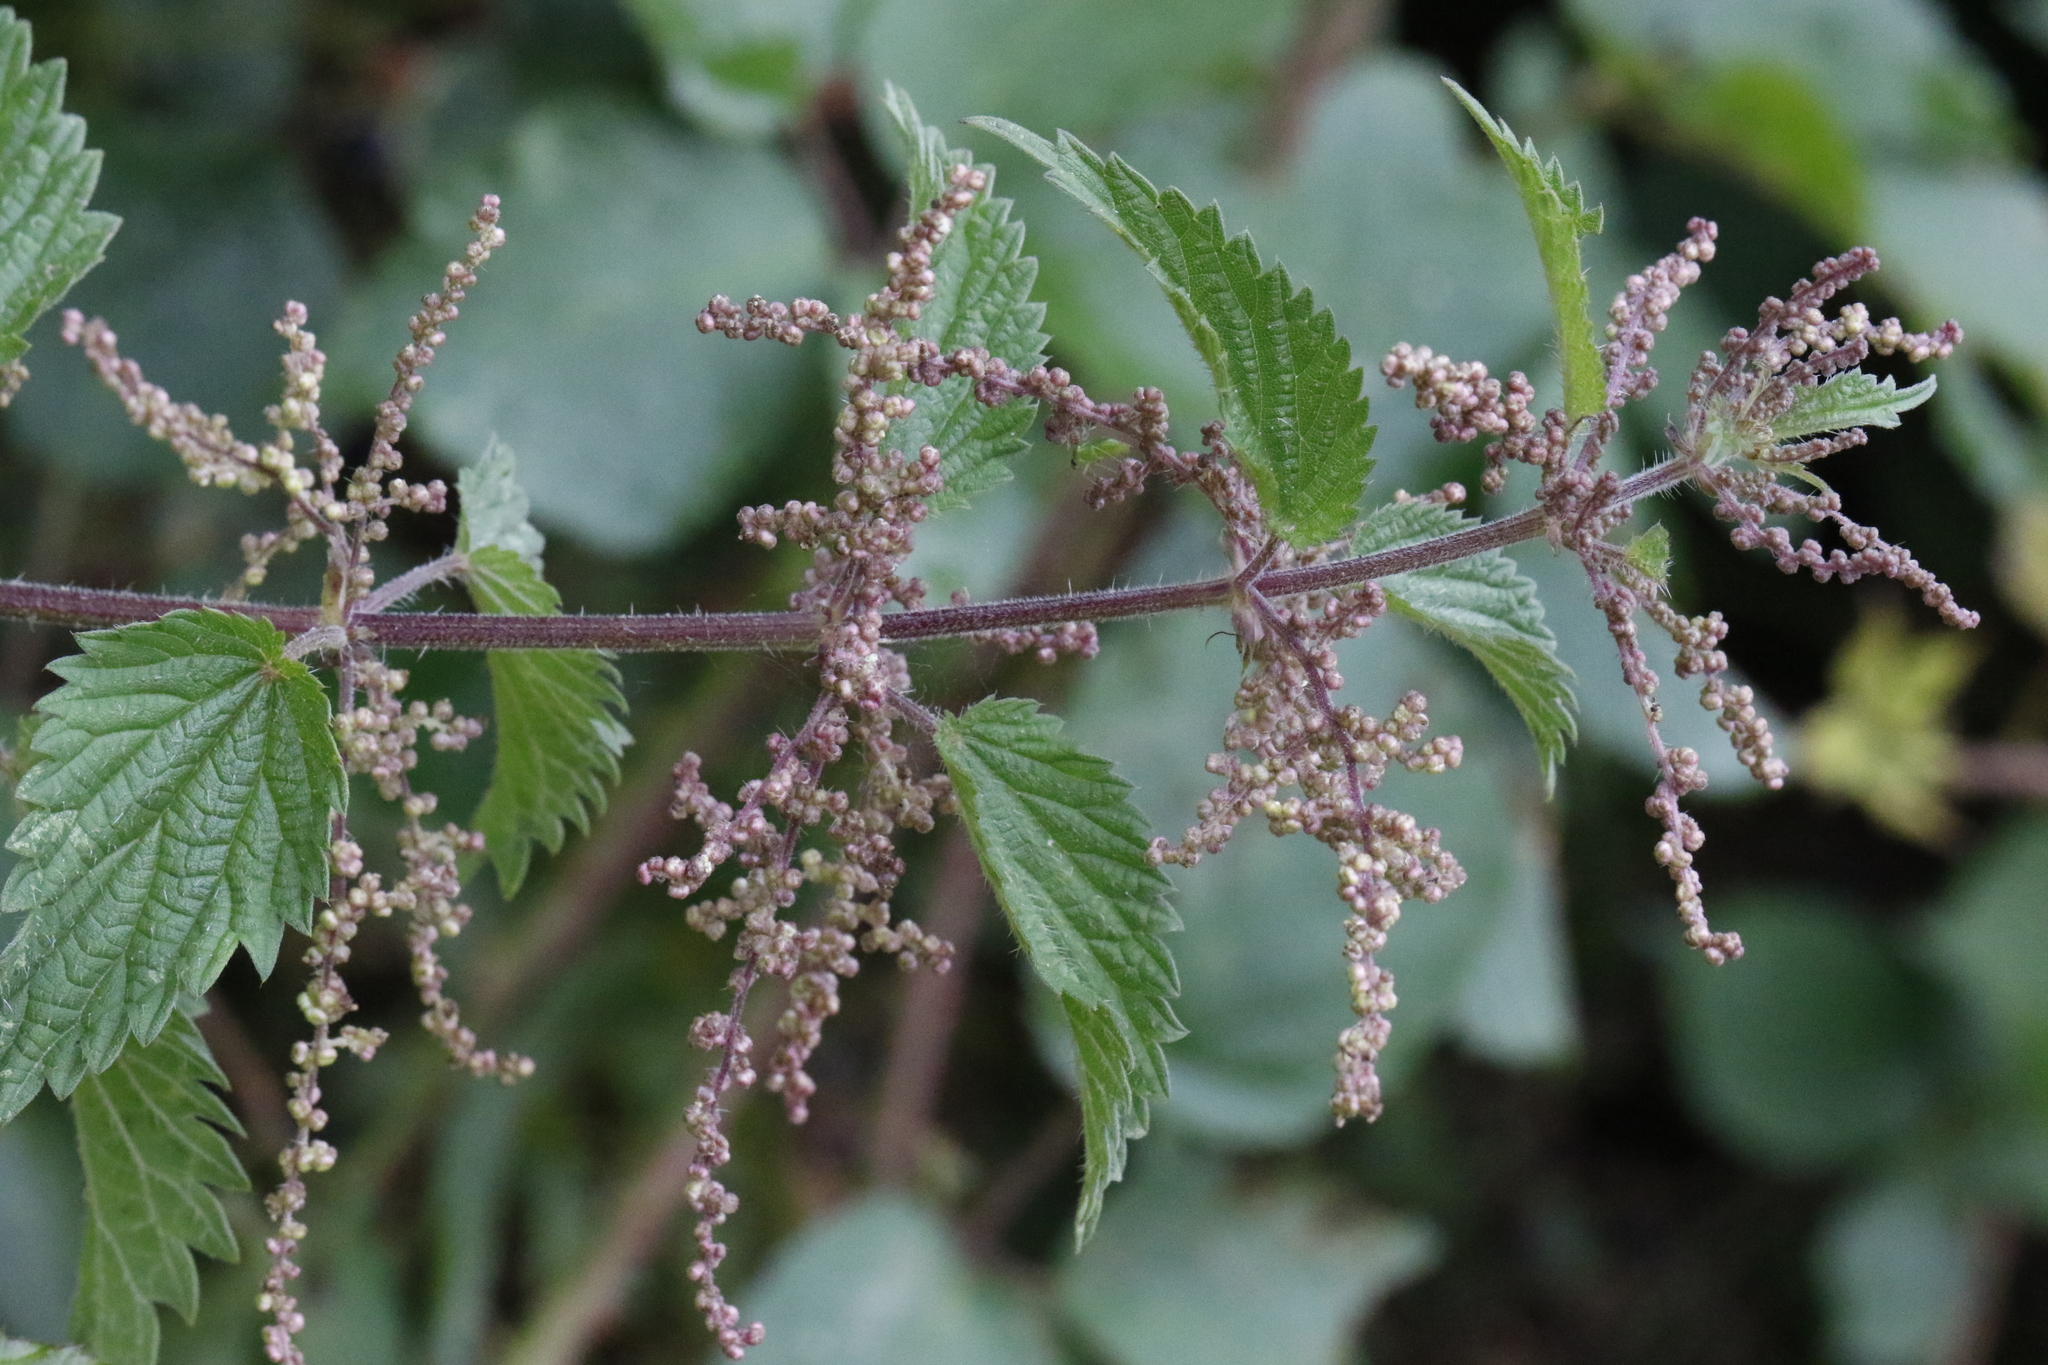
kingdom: Plantae
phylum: Tracheophyta
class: Magnoliopsida
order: Rosales
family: Urticaceae
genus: Urtica
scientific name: Urtica dioica
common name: Common nettle
